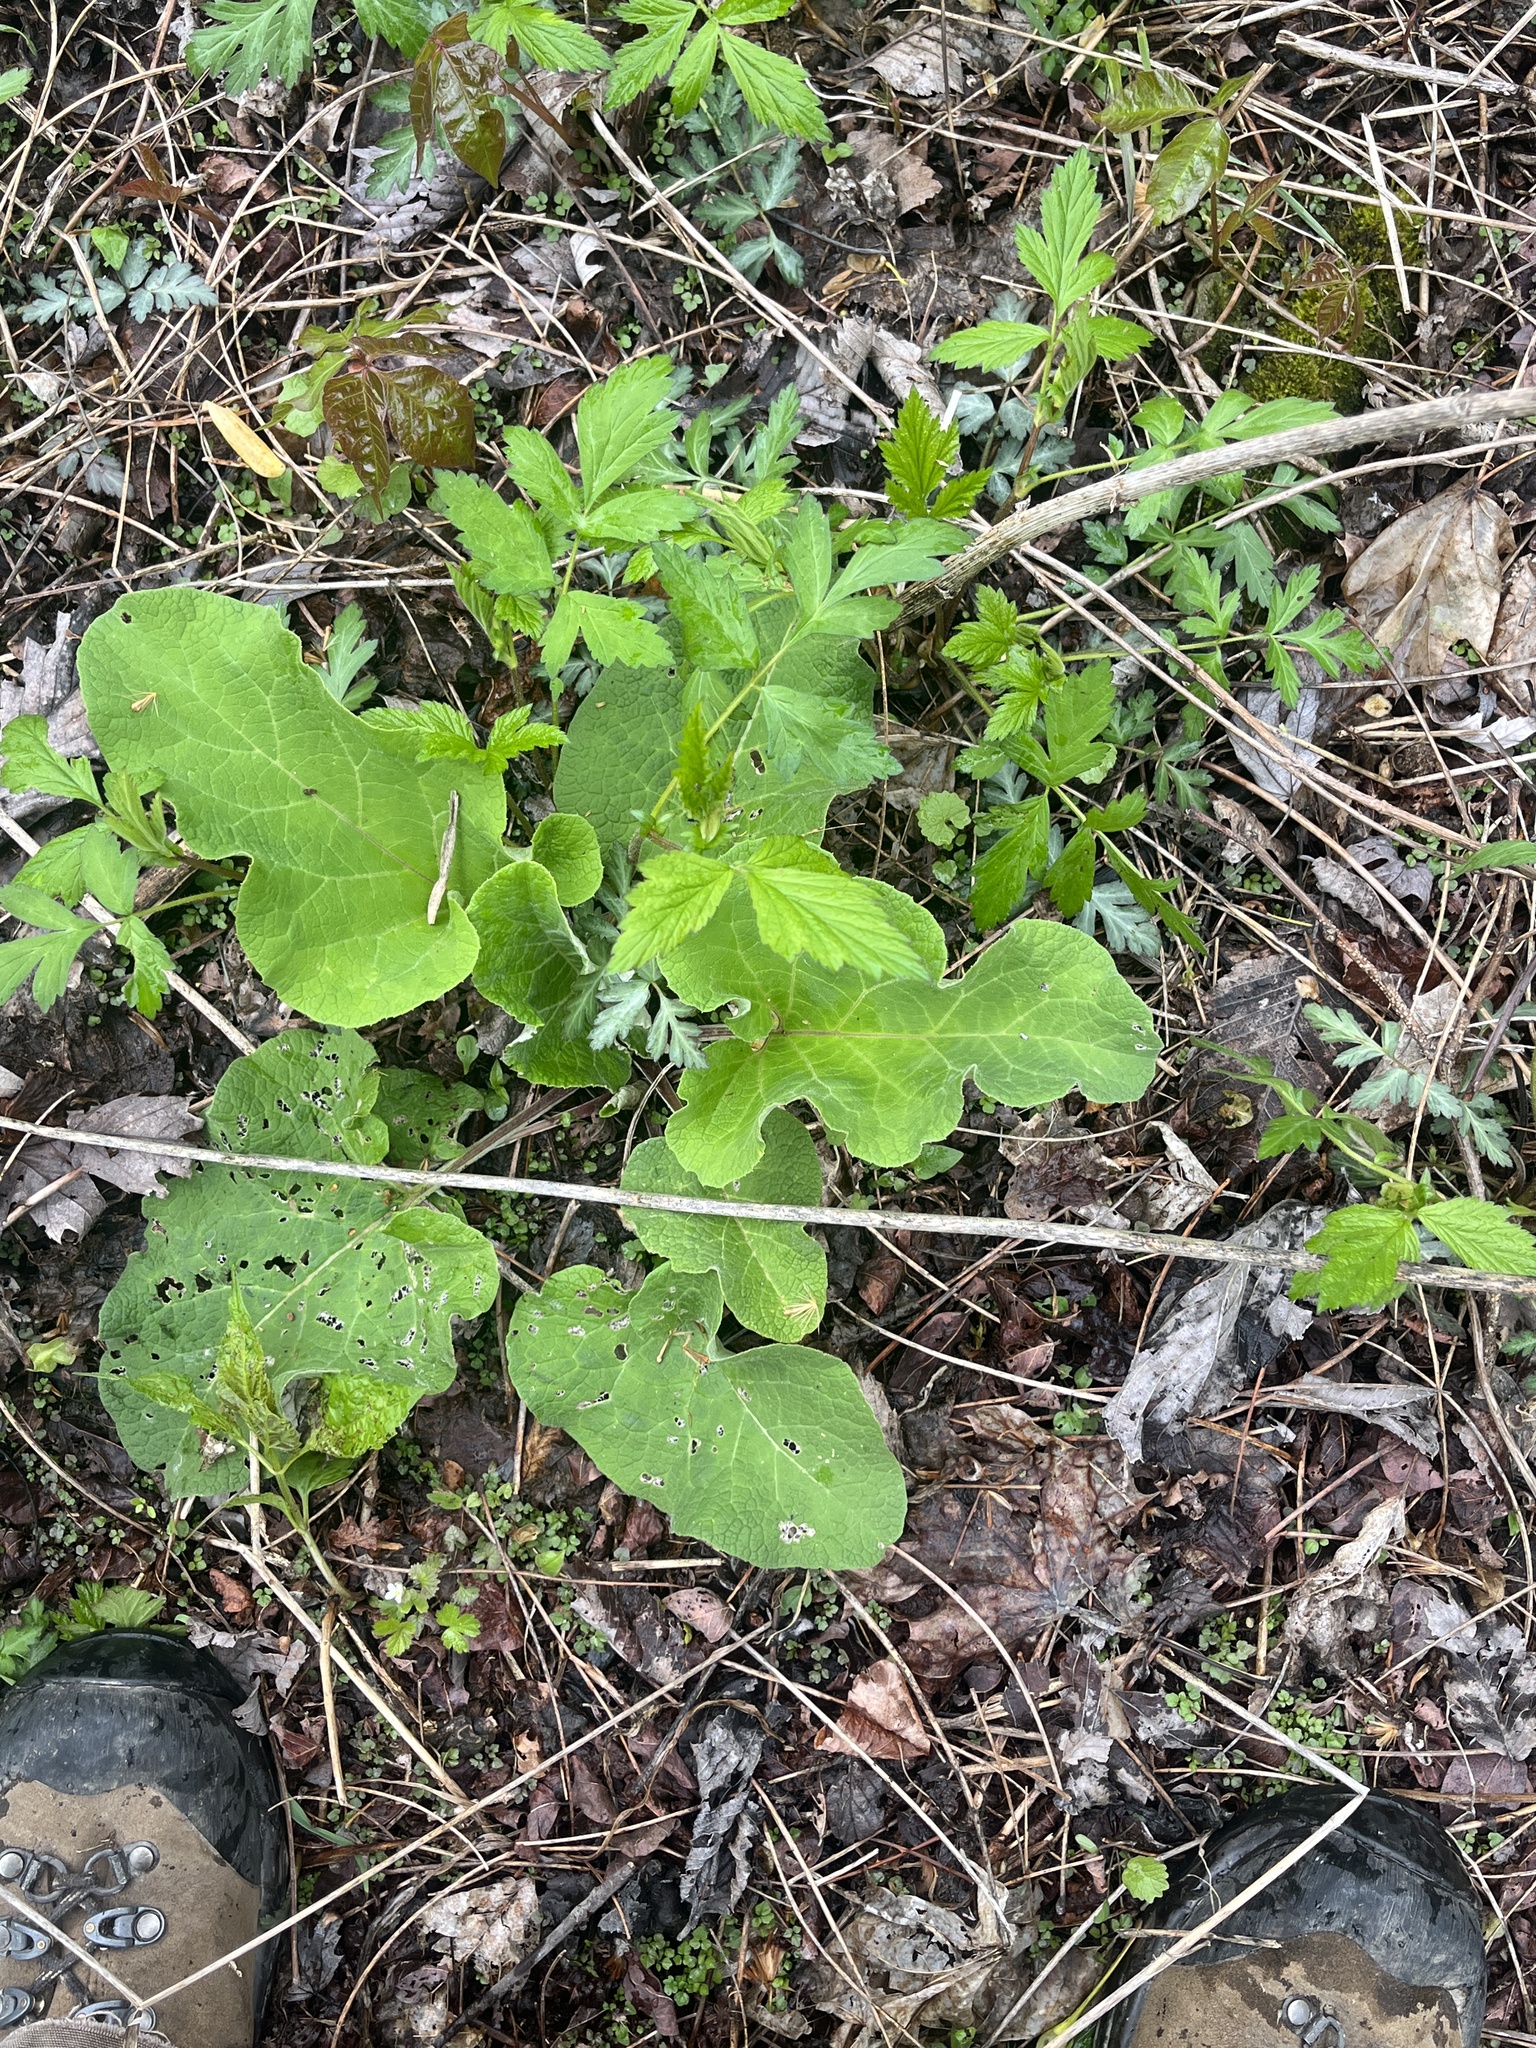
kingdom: Plantae
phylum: Tracheophyta
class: Magnoliopsida
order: Asterales
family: Asteraceae
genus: Arctium
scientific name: Arctium lappa
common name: Greater burdock
